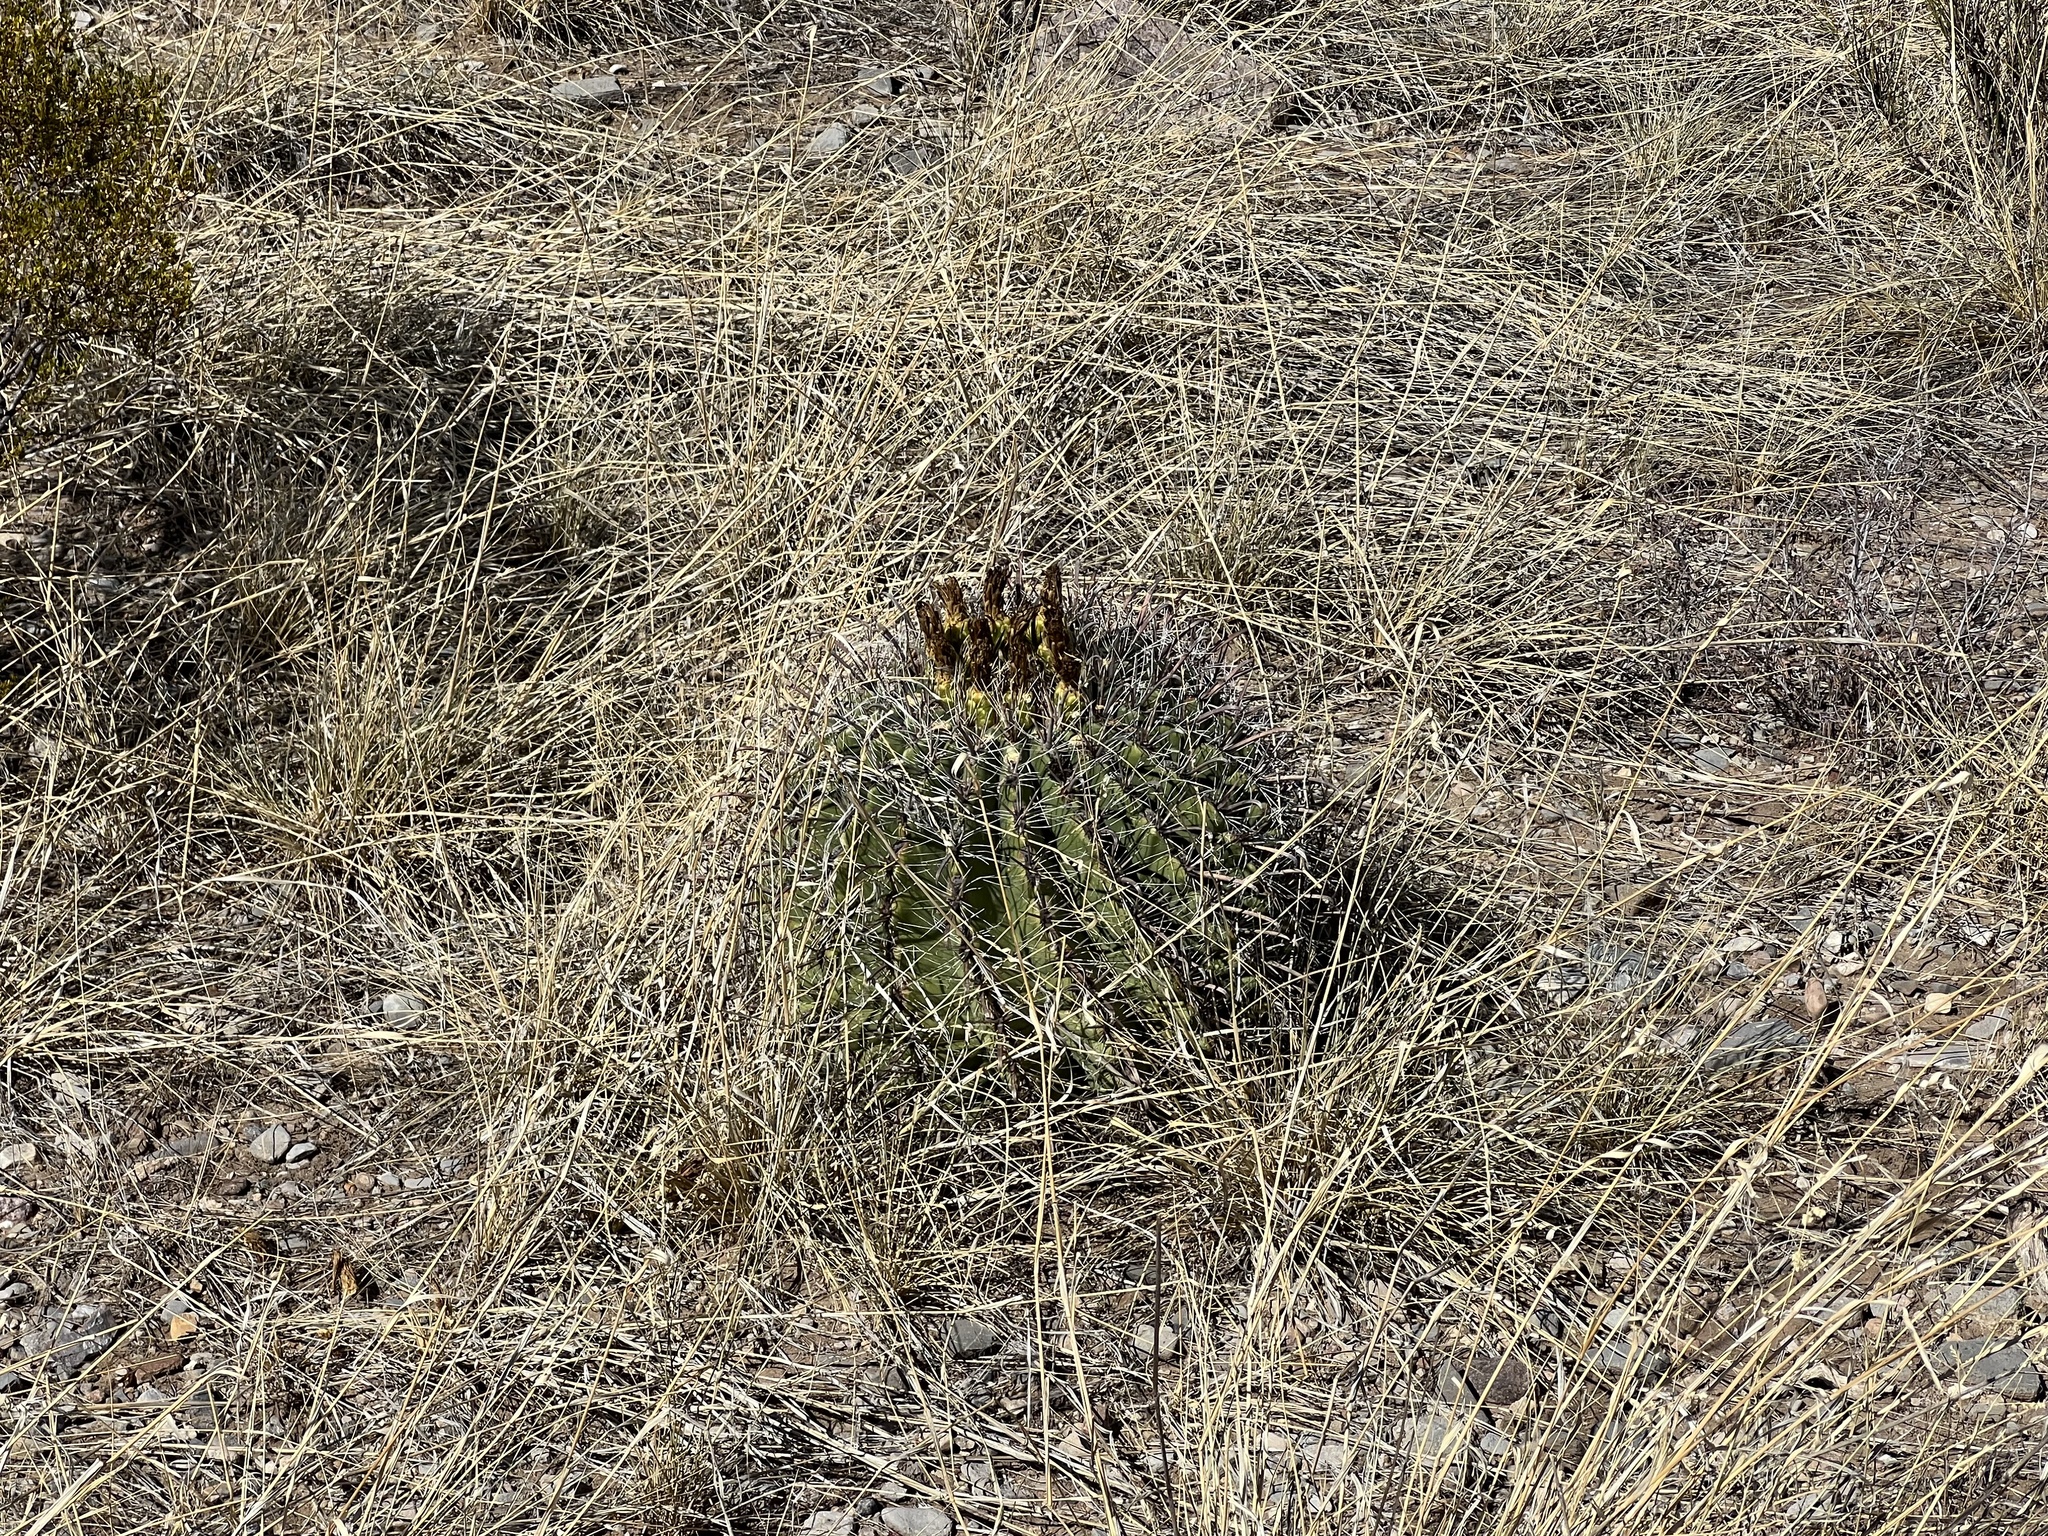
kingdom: Plantae
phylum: Tracheophyta
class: Magnoliopsida
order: Caryophyllales
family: Cactaceae
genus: Ferocactus
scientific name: Ferocactus wislizeni
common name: Candy barrel cactus
